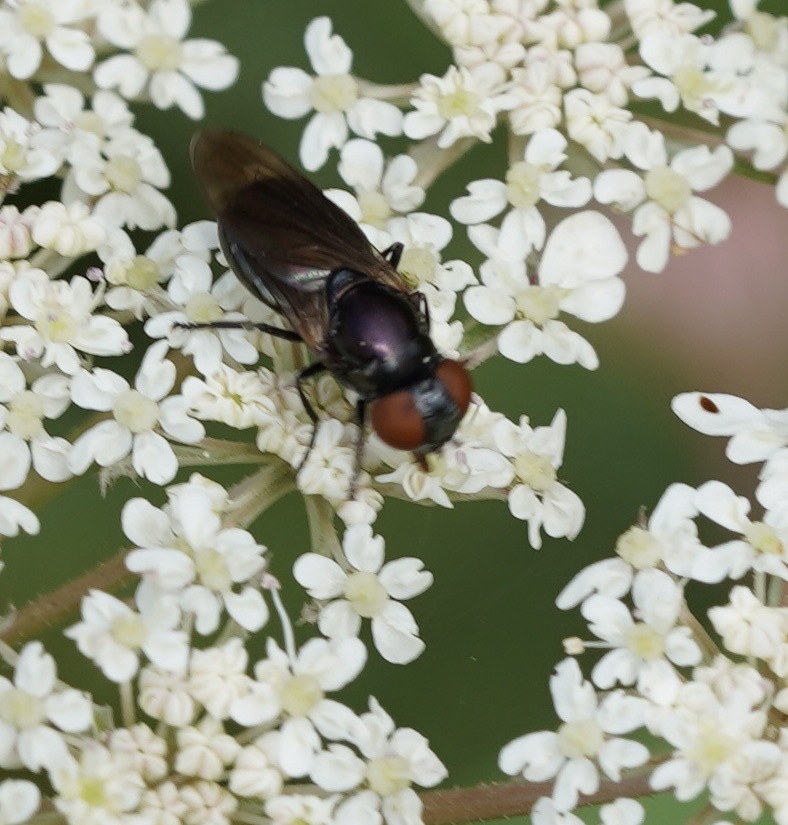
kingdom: Animalia
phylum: Arthropoda
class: Insecta
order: Diptera
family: Syrphidae
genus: Chrysogaster
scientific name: Chrysogaster solstitialis
